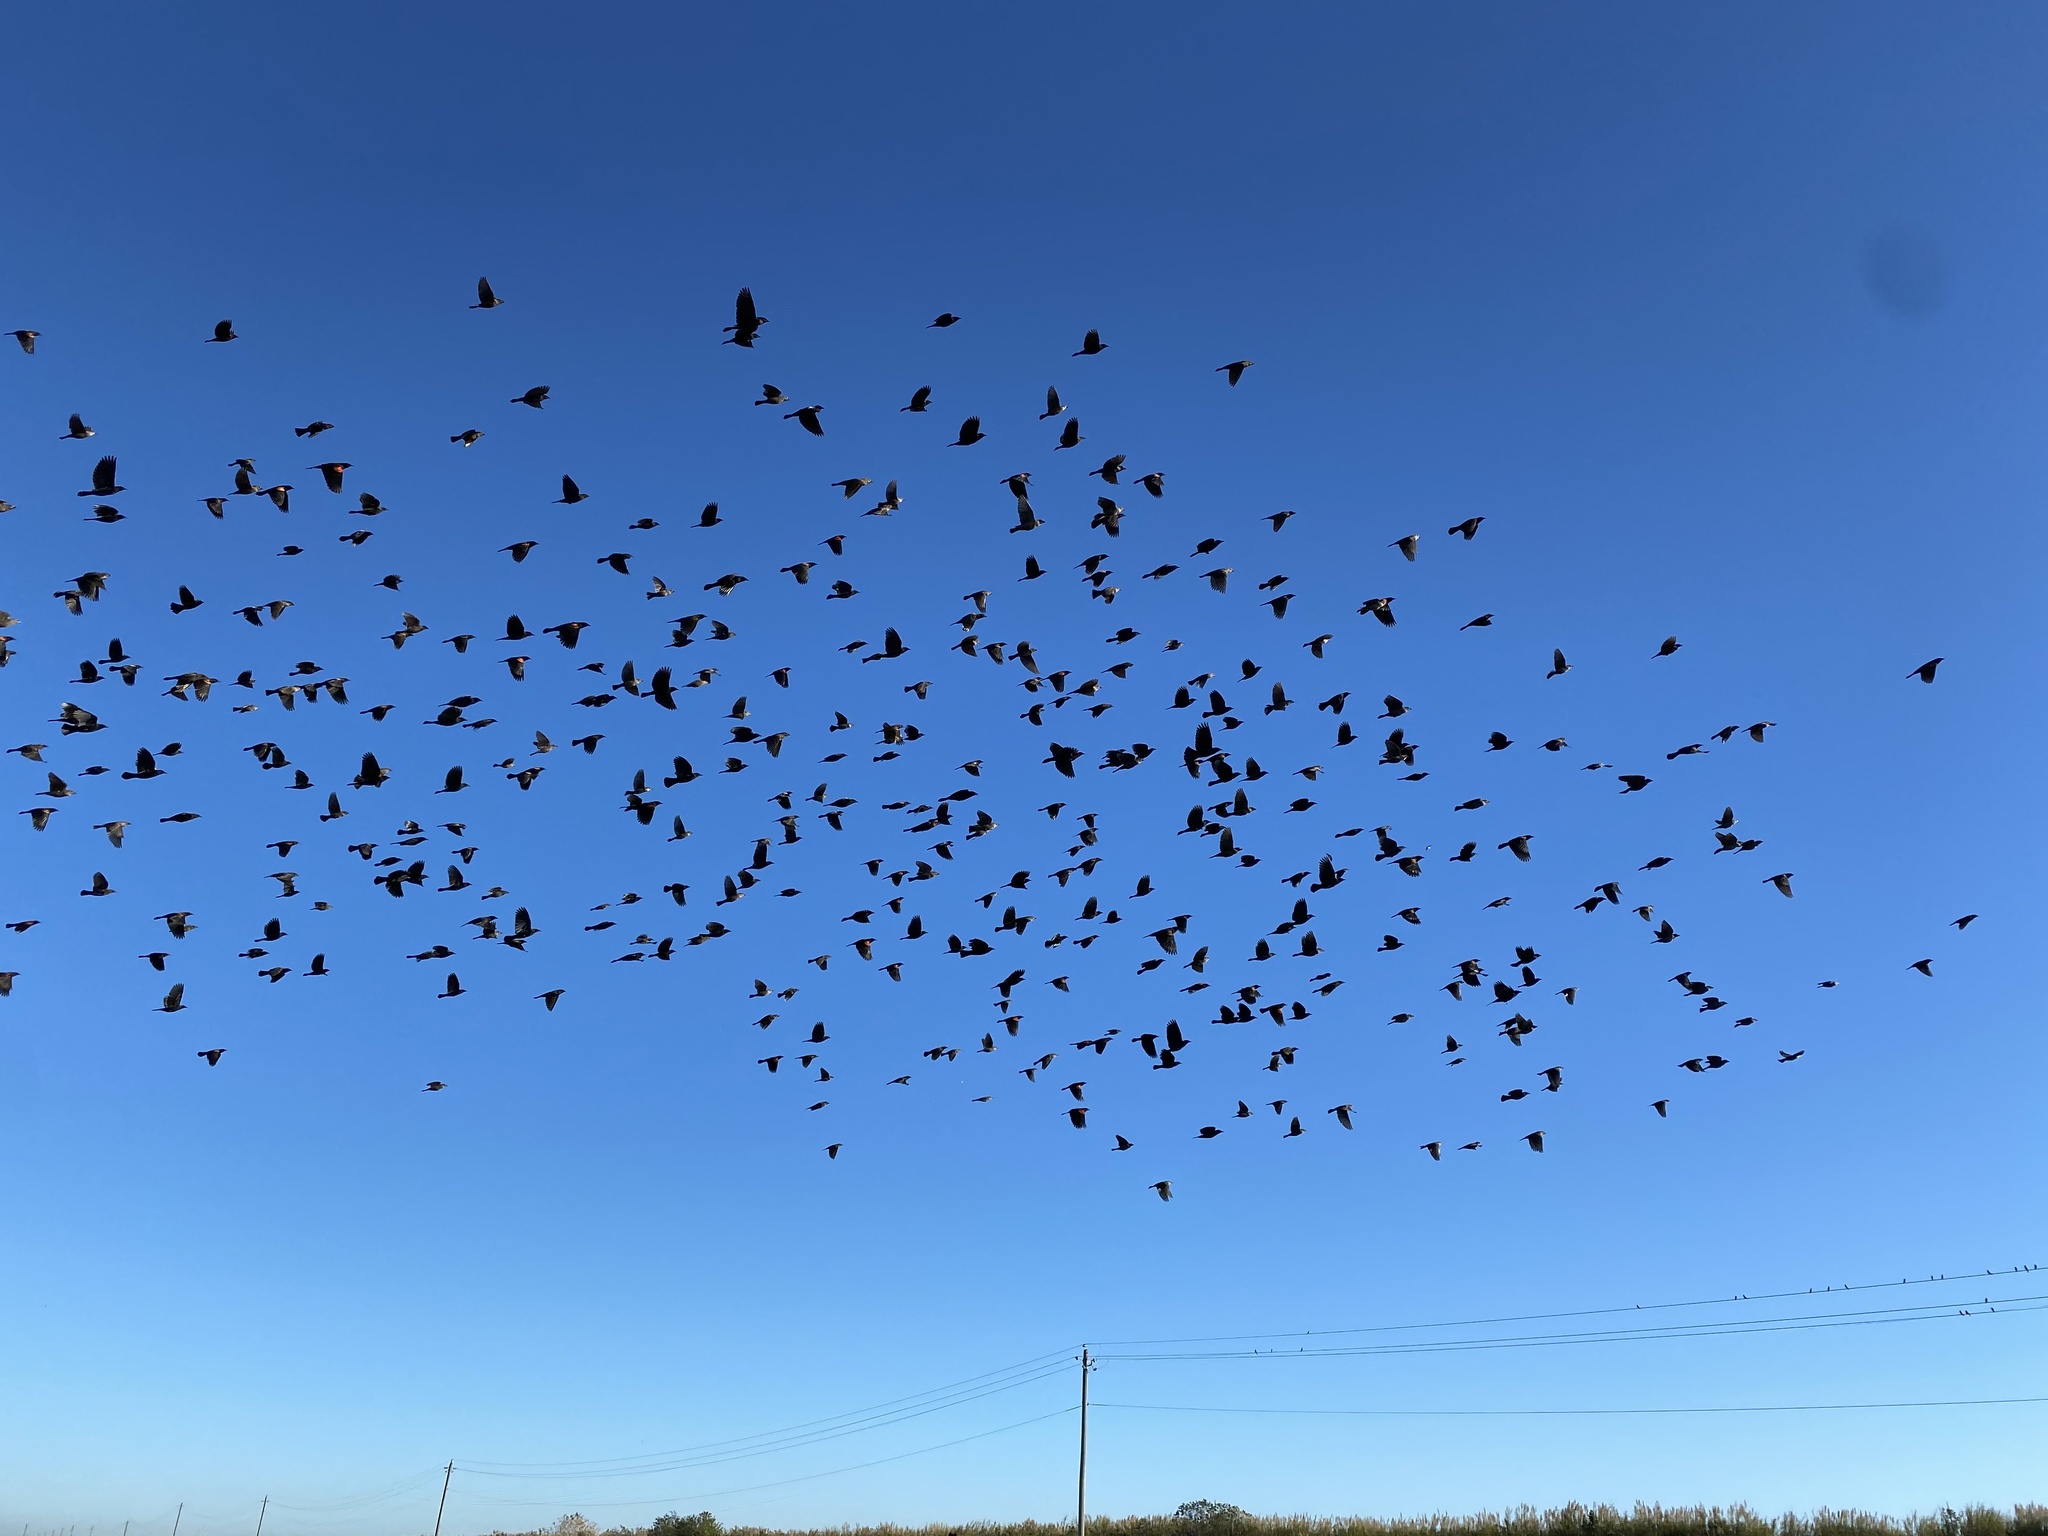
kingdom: Animalia
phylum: Chordata
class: Aves
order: Passeriformes
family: Icteridae
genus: Agelaius
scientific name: Agelaius phoeniceus
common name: Red-winged blackbird
